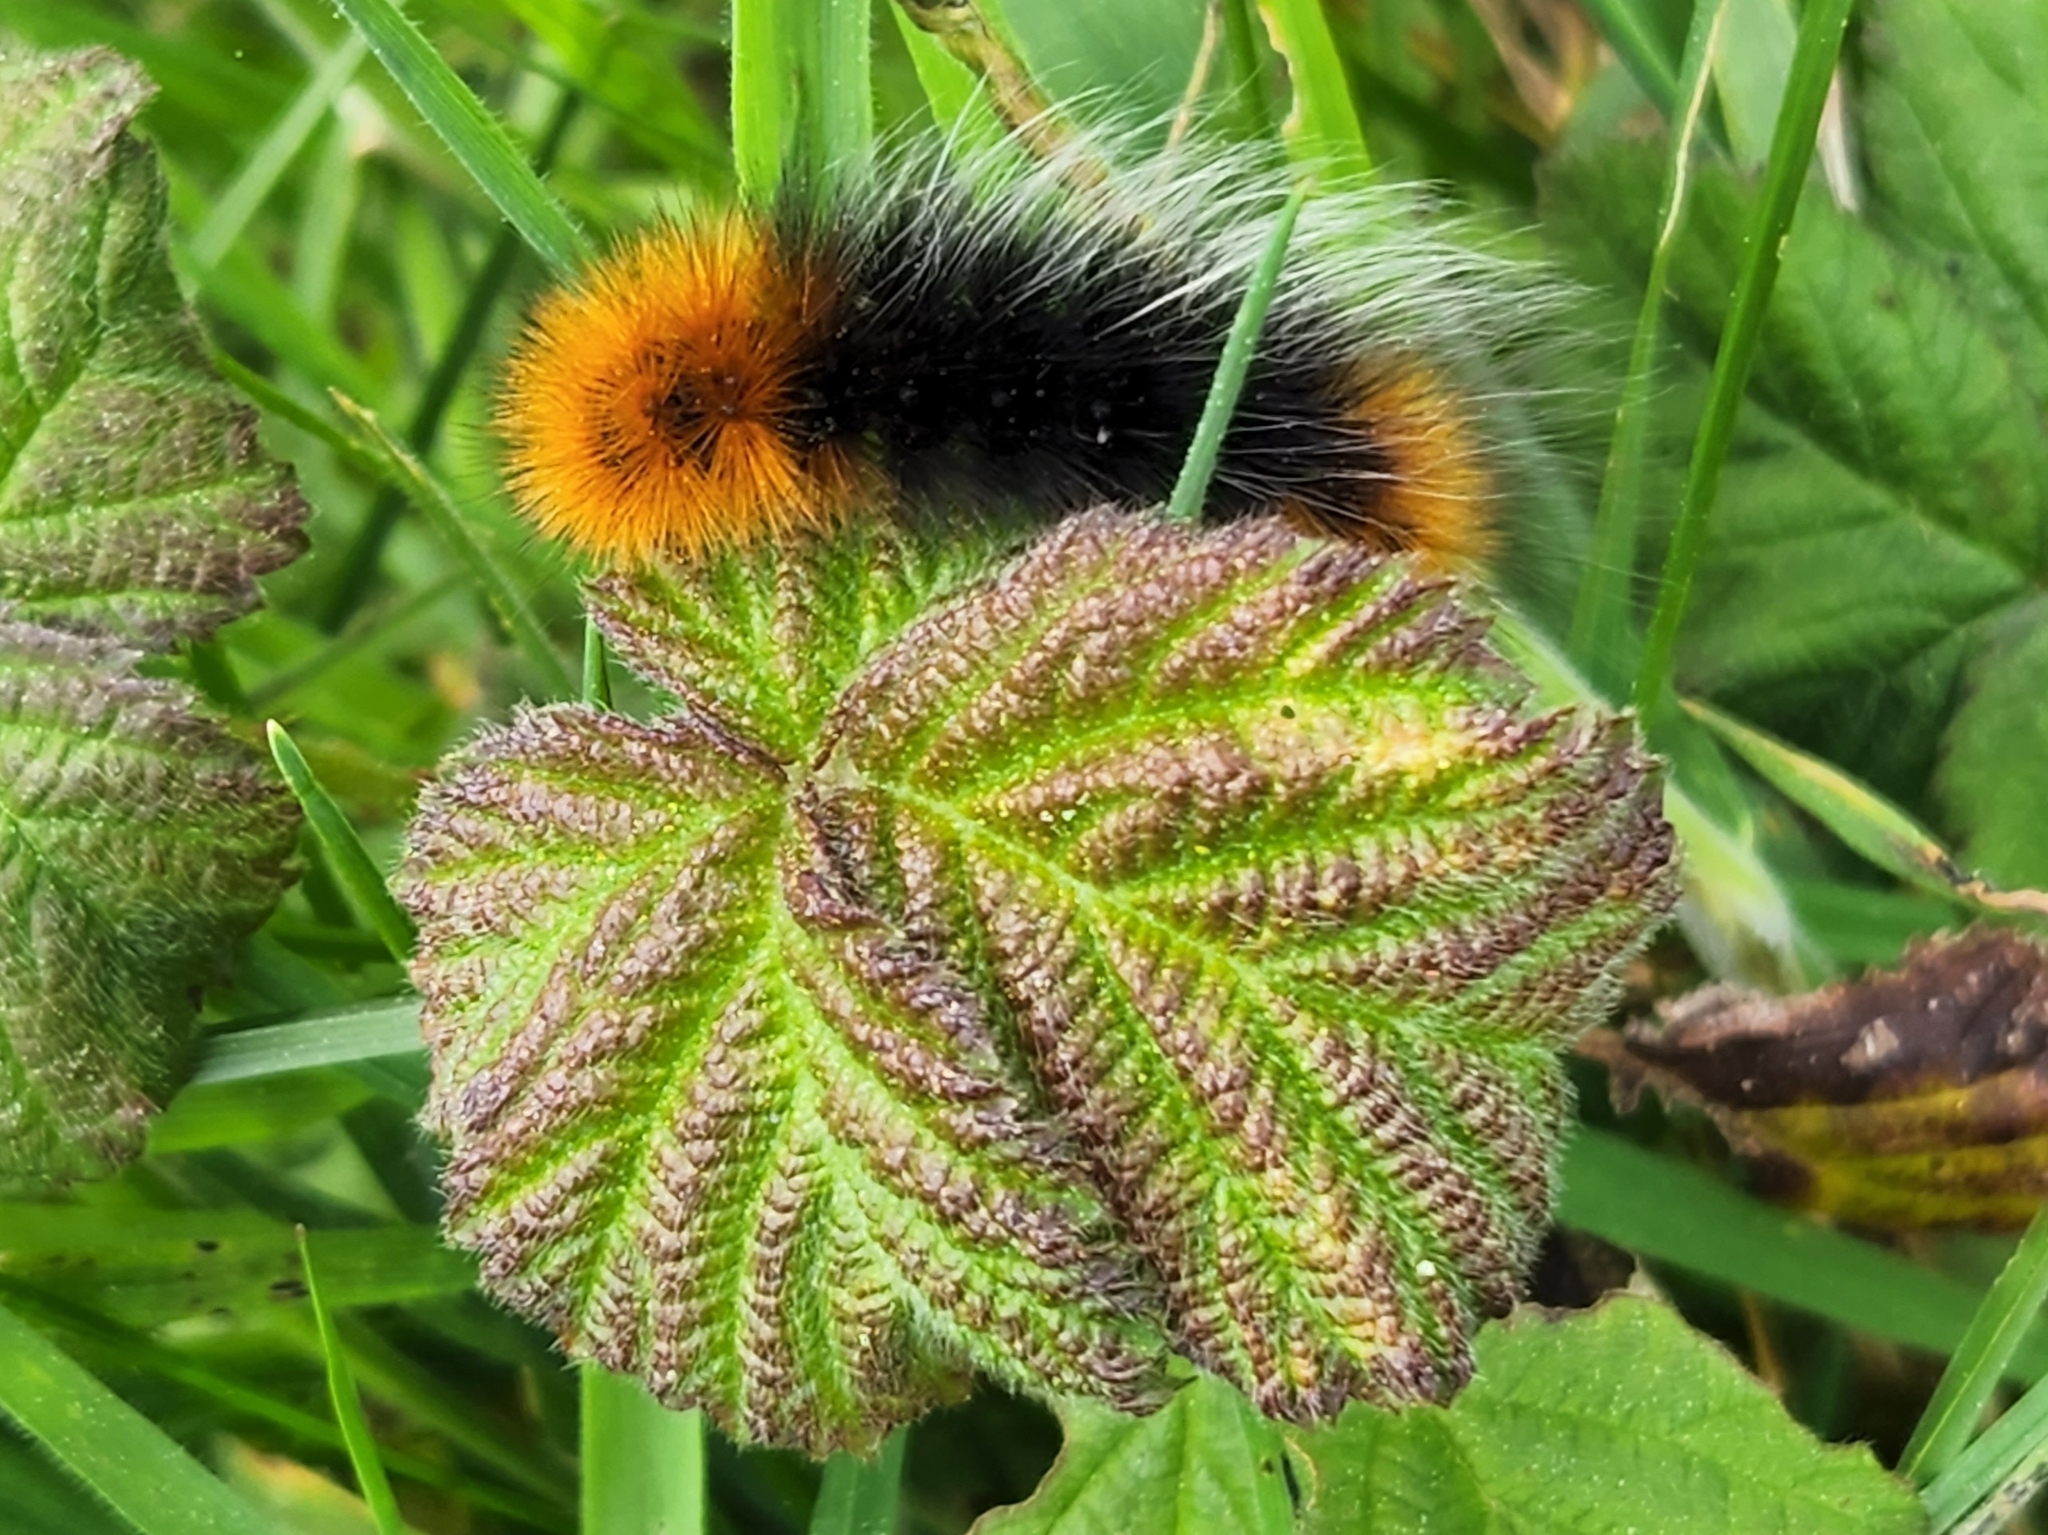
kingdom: Animalia
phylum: Arthropoda
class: Insecta
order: Lepidoptera
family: Erebidae
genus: Arctia
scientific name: Arctia tigrina
